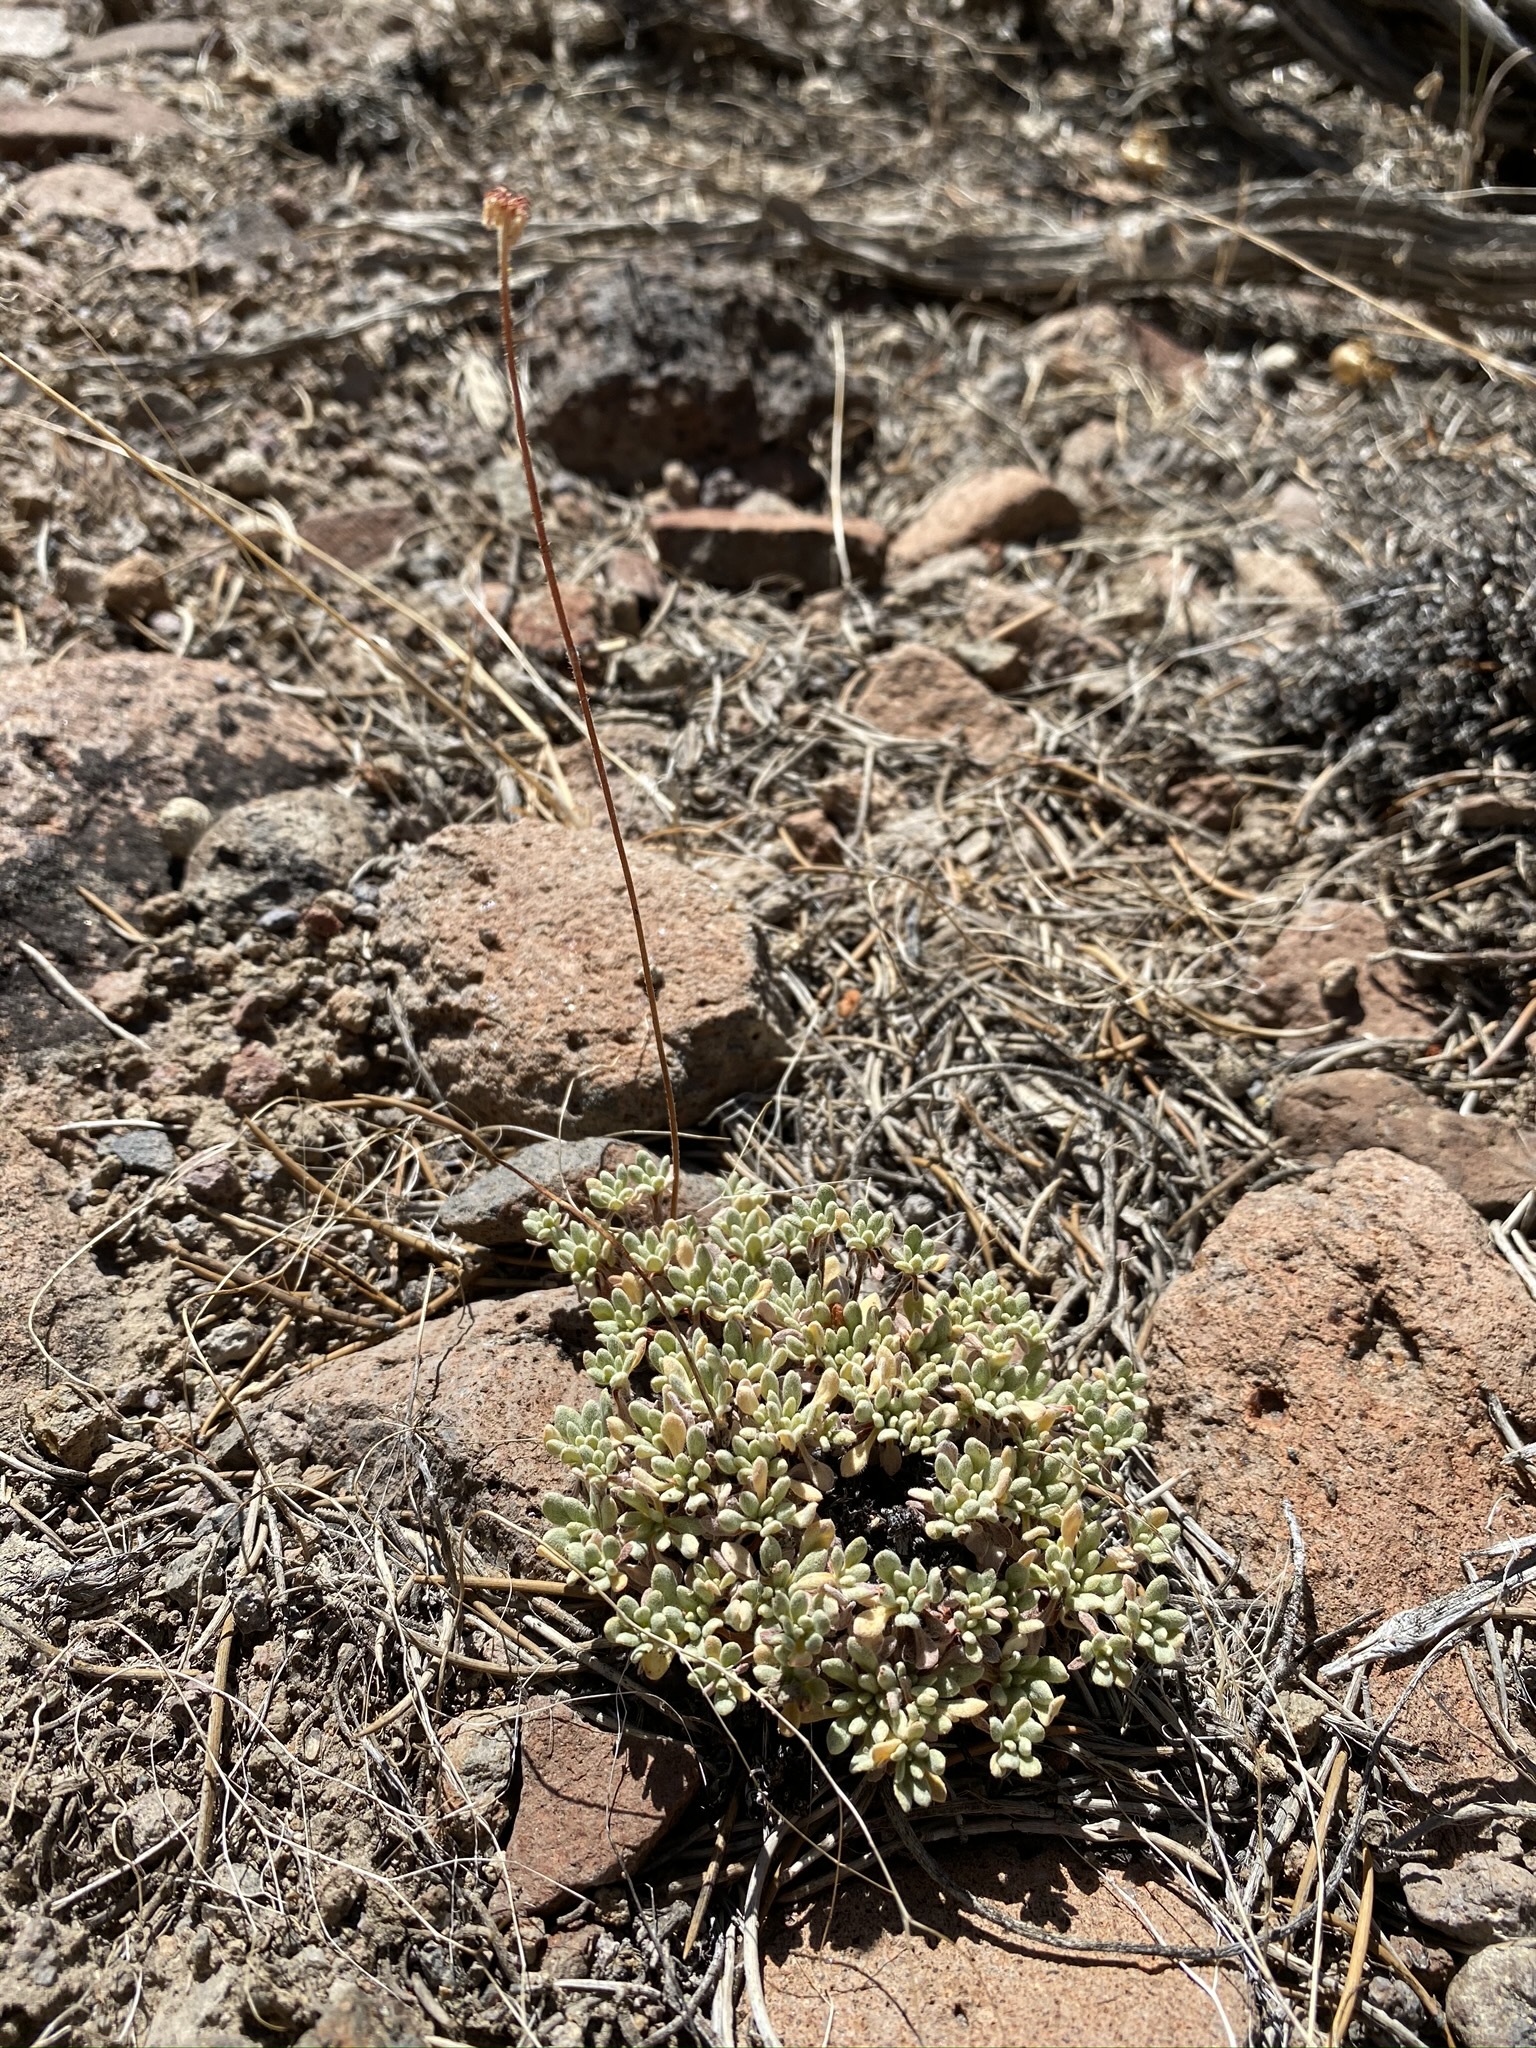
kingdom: Plantae
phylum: Tracheophyta
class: Magnoliopsida
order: Caryophyllales
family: Polygonaceae
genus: Eriogonum
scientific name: Eriogonum caespitosum
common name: Matted wild buckwheat
